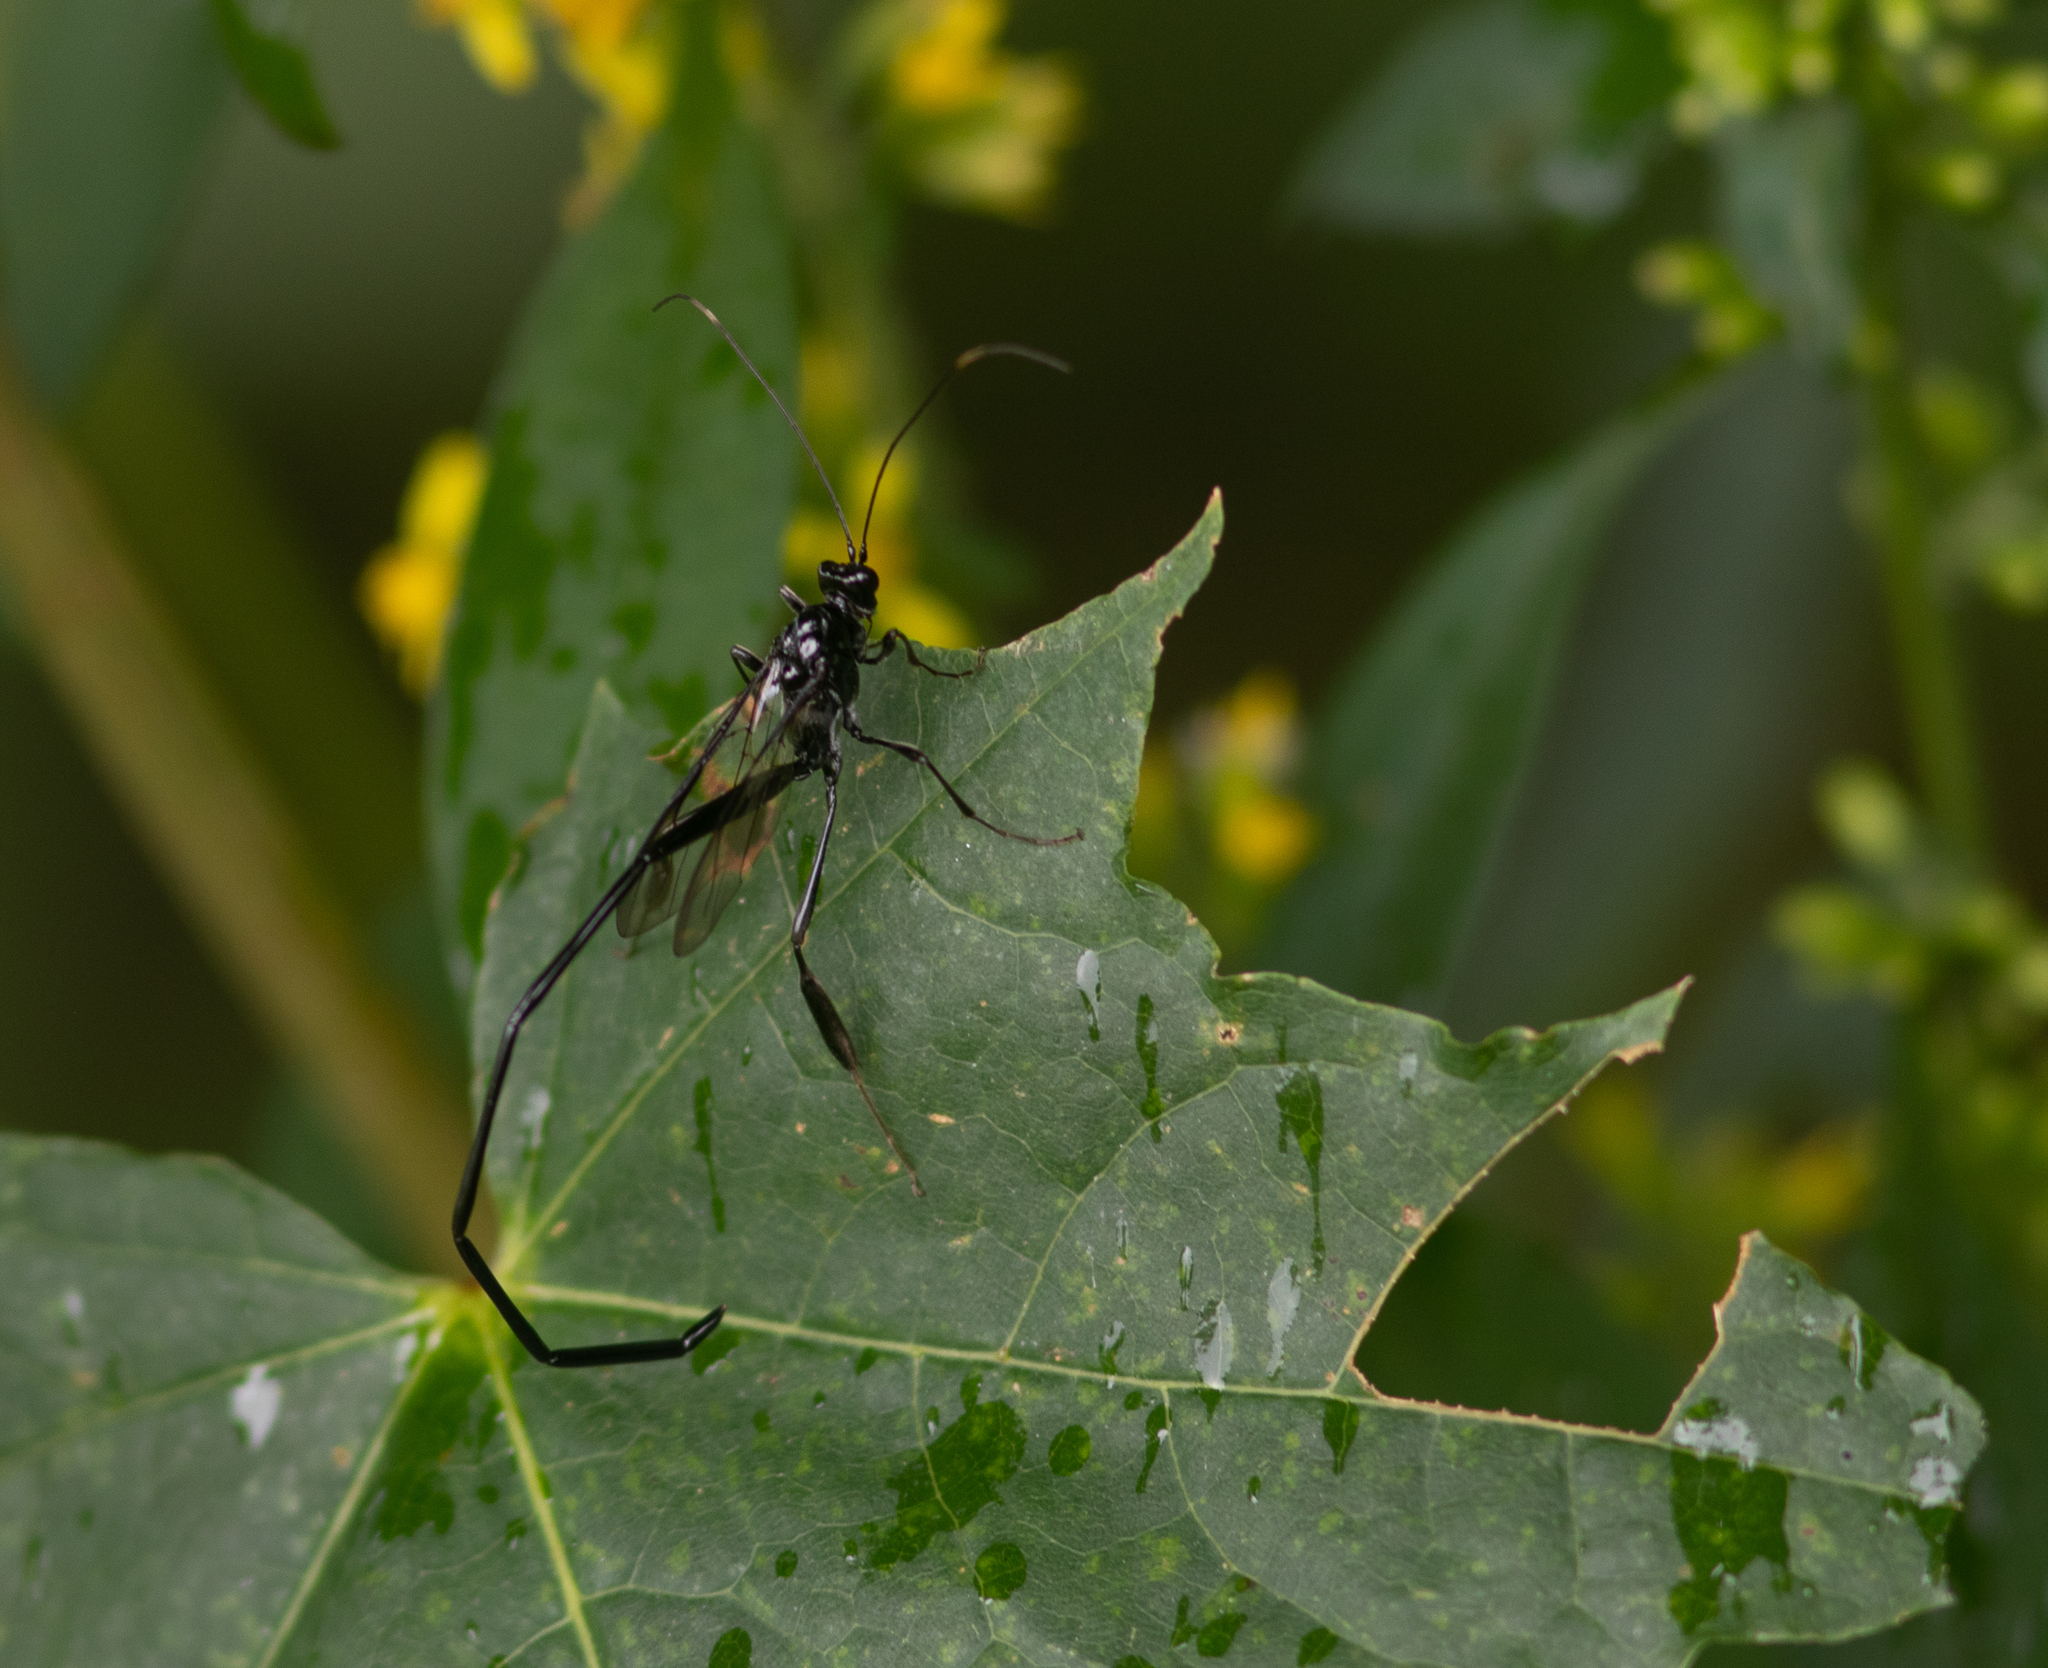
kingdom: Animalia
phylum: Arthropoda
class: Insecta
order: Hymenoptera
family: Pelecinidae
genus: Pelecinus
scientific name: Pelecinus polyturator
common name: American pelecinid wasp
